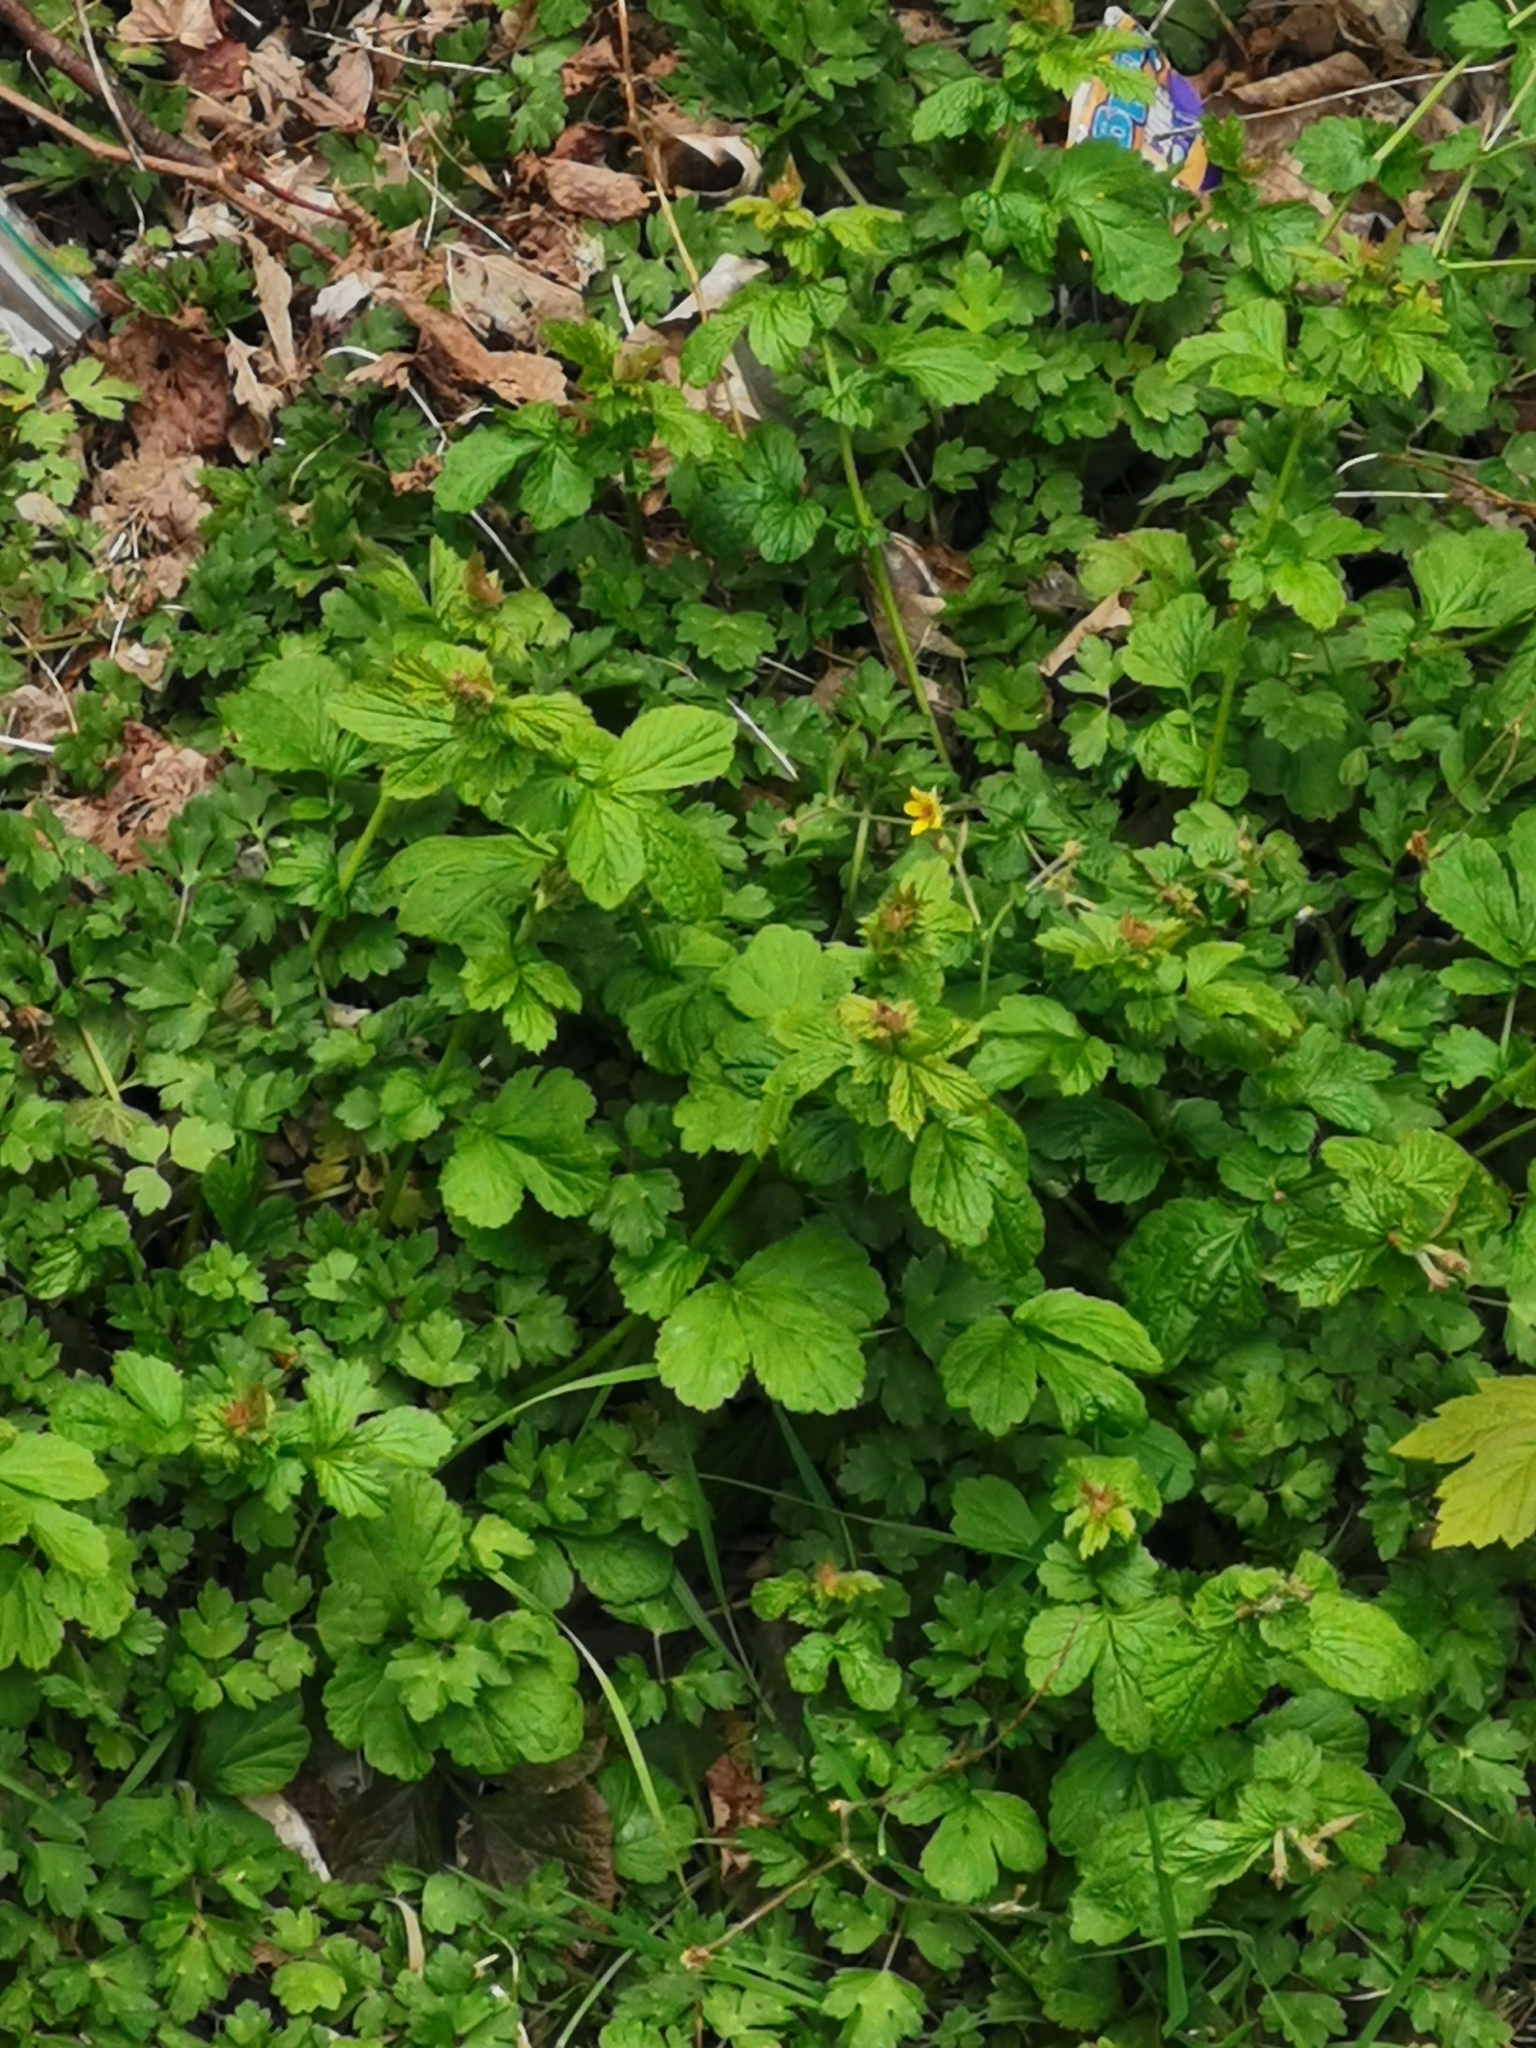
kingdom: Plantae
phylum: Tracheophyta
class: Magnoliopsida
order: Rosales
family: Rosaceae
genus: Geum
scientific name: Geum urbanum
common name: Wood avens
